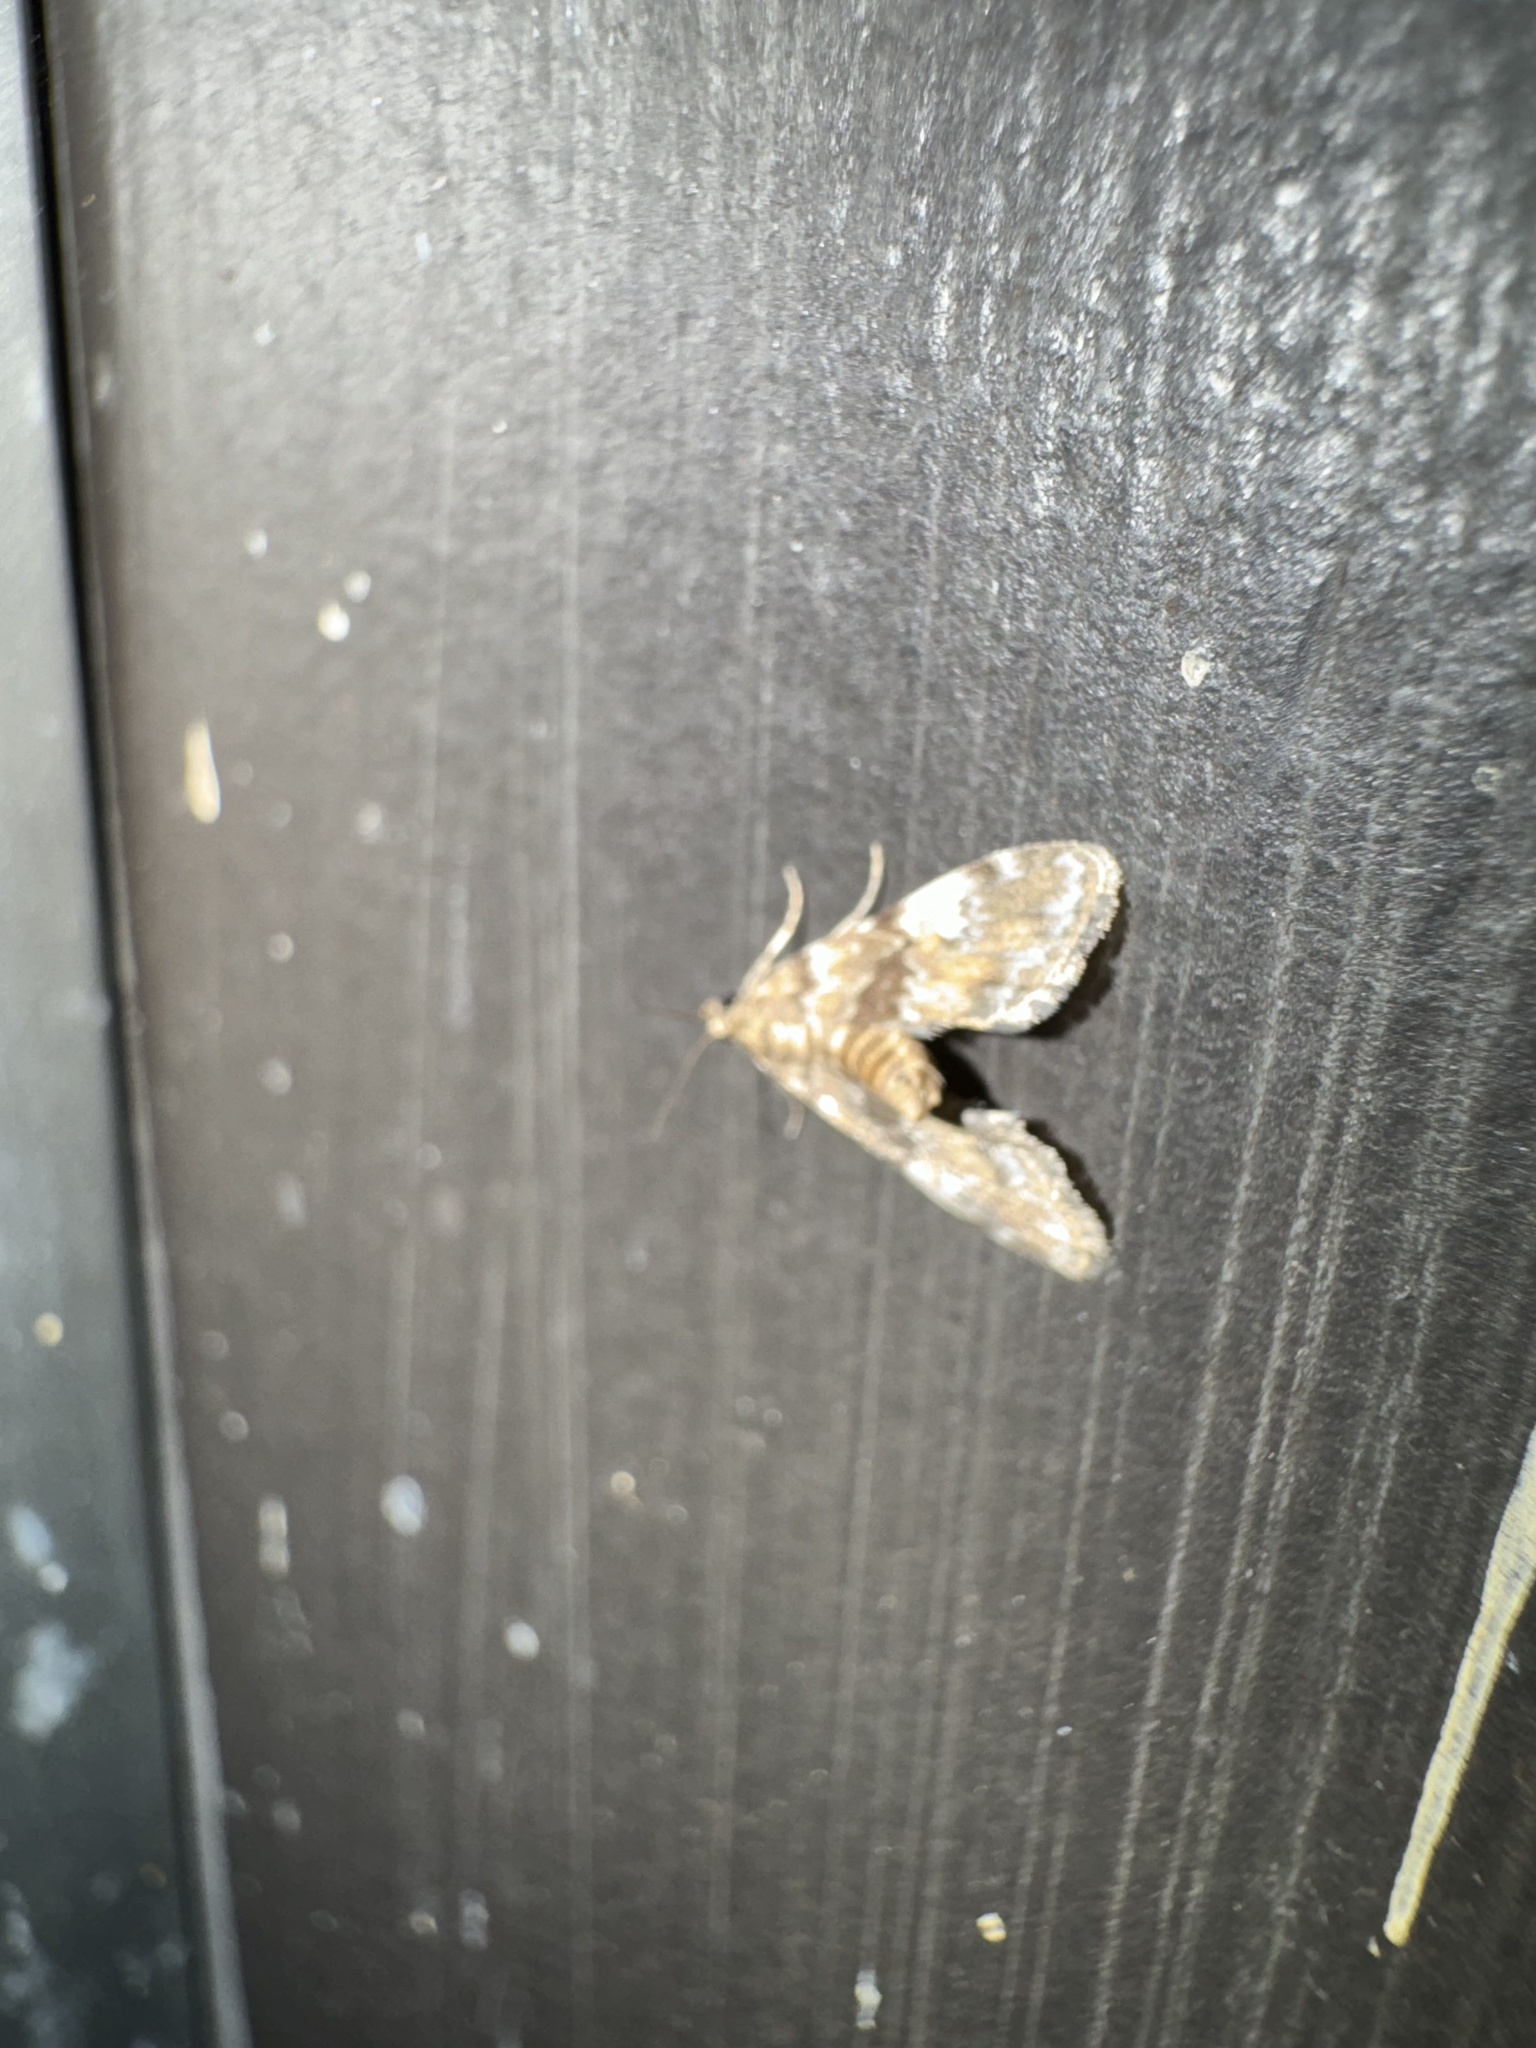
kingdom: Animalia
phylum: Arthropoda
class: Insecta
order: Lepidoptera
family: Crambidae
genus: Elophila
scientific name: Elophila obliteralis
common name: Waterlily leafcutter moth
